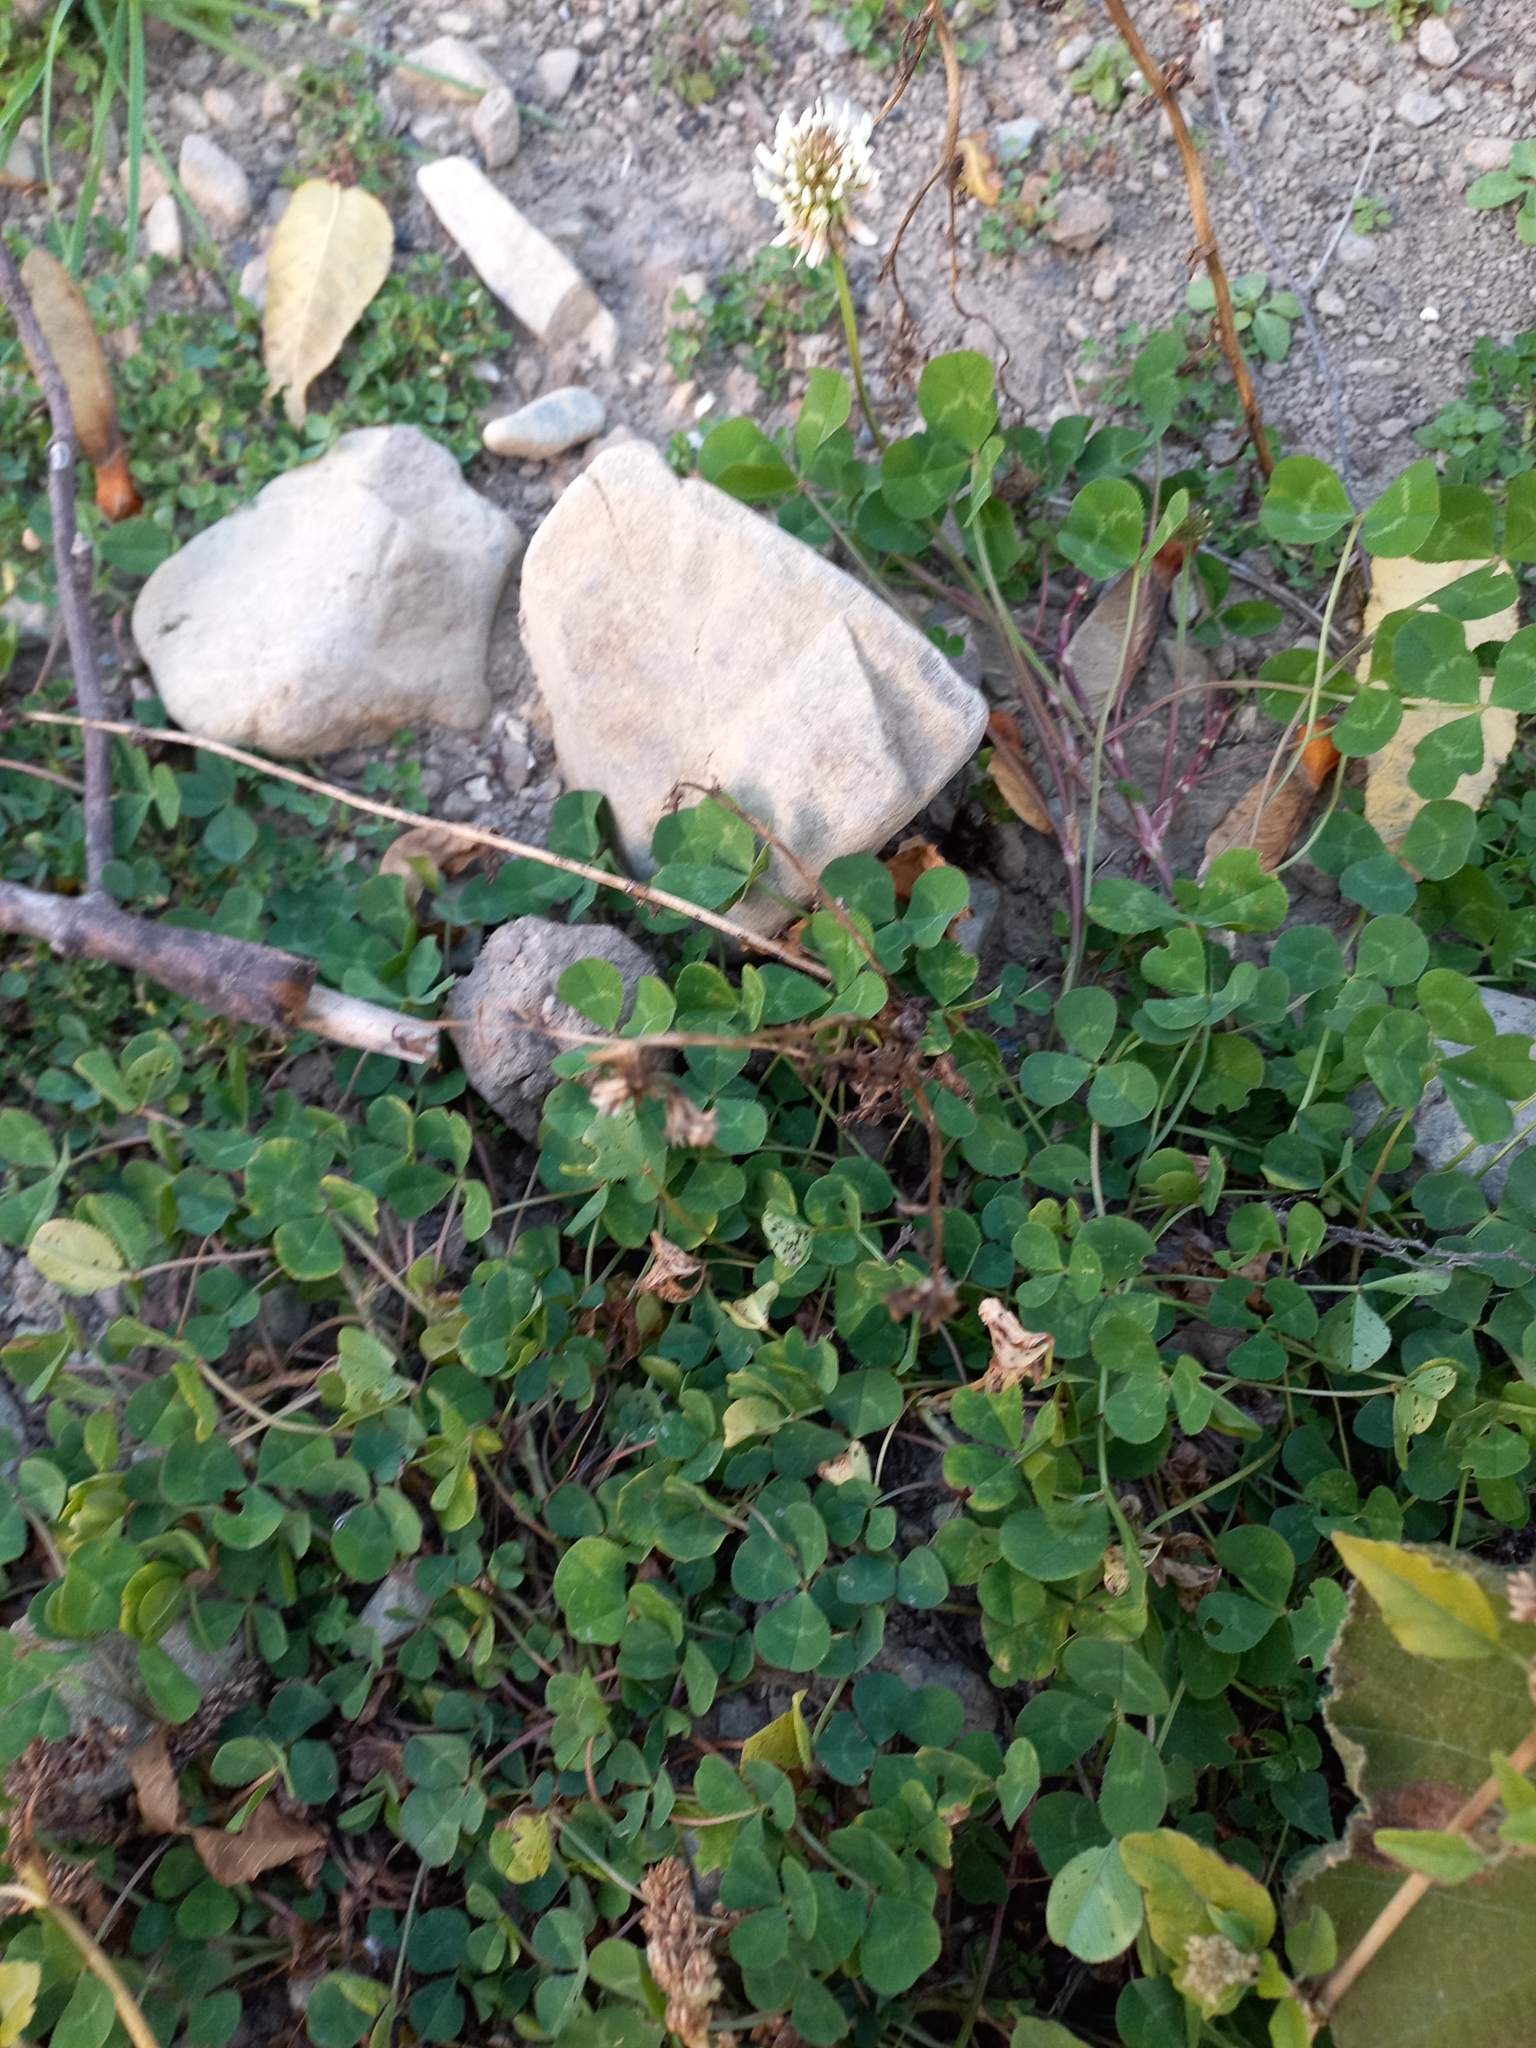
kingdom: Plantae
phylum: Tracheophyta
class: Magnoliopsida
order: Fabales
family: Fabaceae
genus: Trifolium
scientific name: Trifolium repens
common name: White clover
